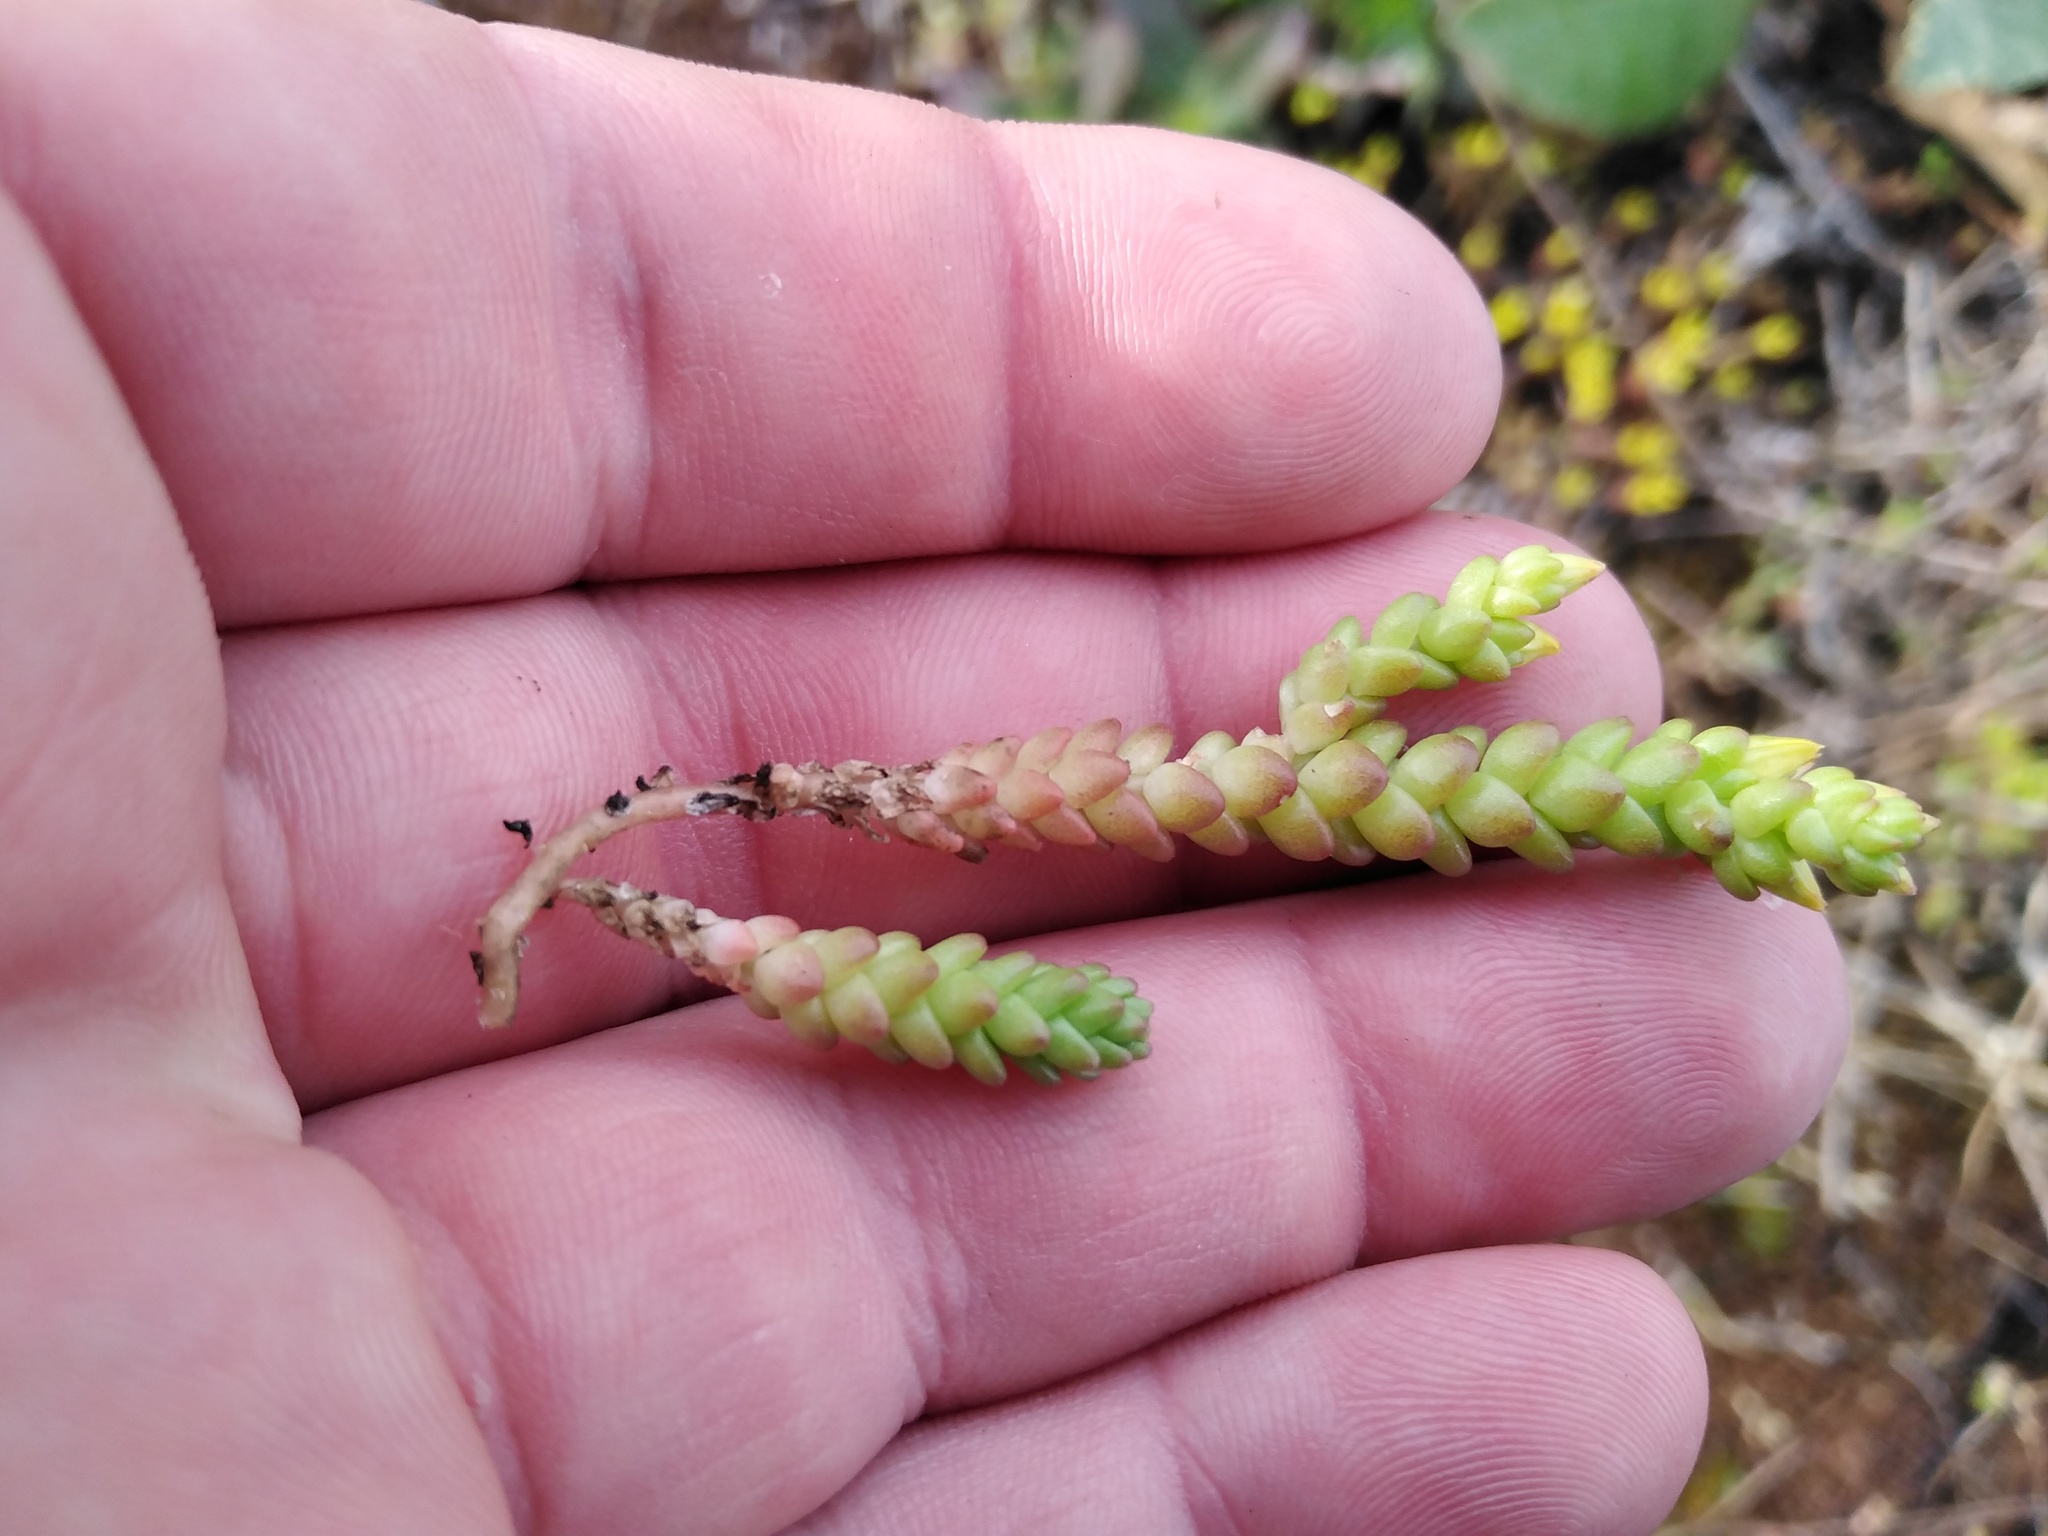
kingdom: Plantae
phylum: Tracheophyta
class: Magnoliopsida
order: Saxifragales
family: Crassulaceae
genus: Sedum
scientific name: Sedum acre
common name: Biting stonecrop
